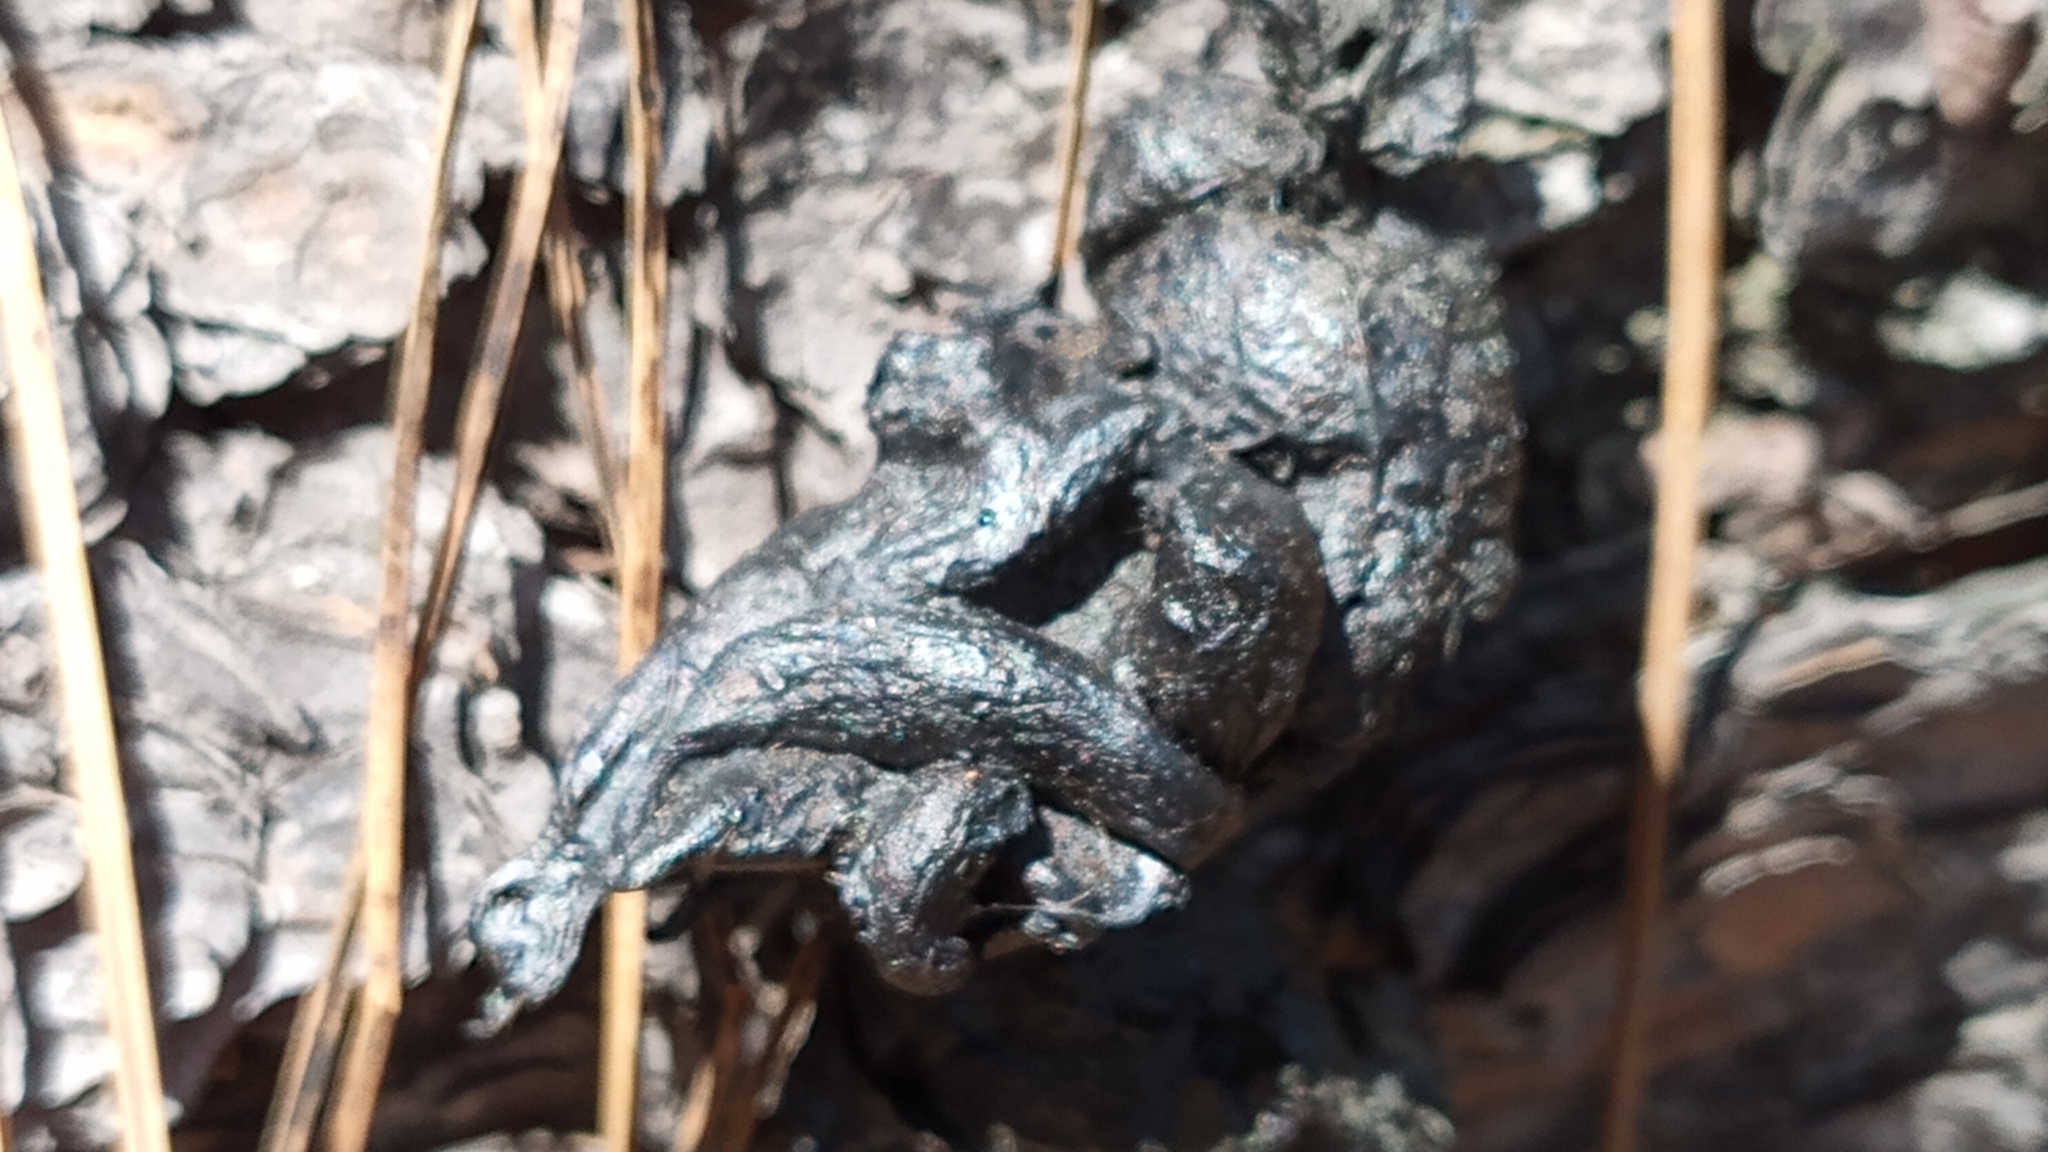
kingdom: Animalia
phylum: Chordata
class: Mammalia
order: Carnivora
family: Procyonidae
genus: Bassariscus
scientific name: Bassariscus astutus
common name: Ringtail
